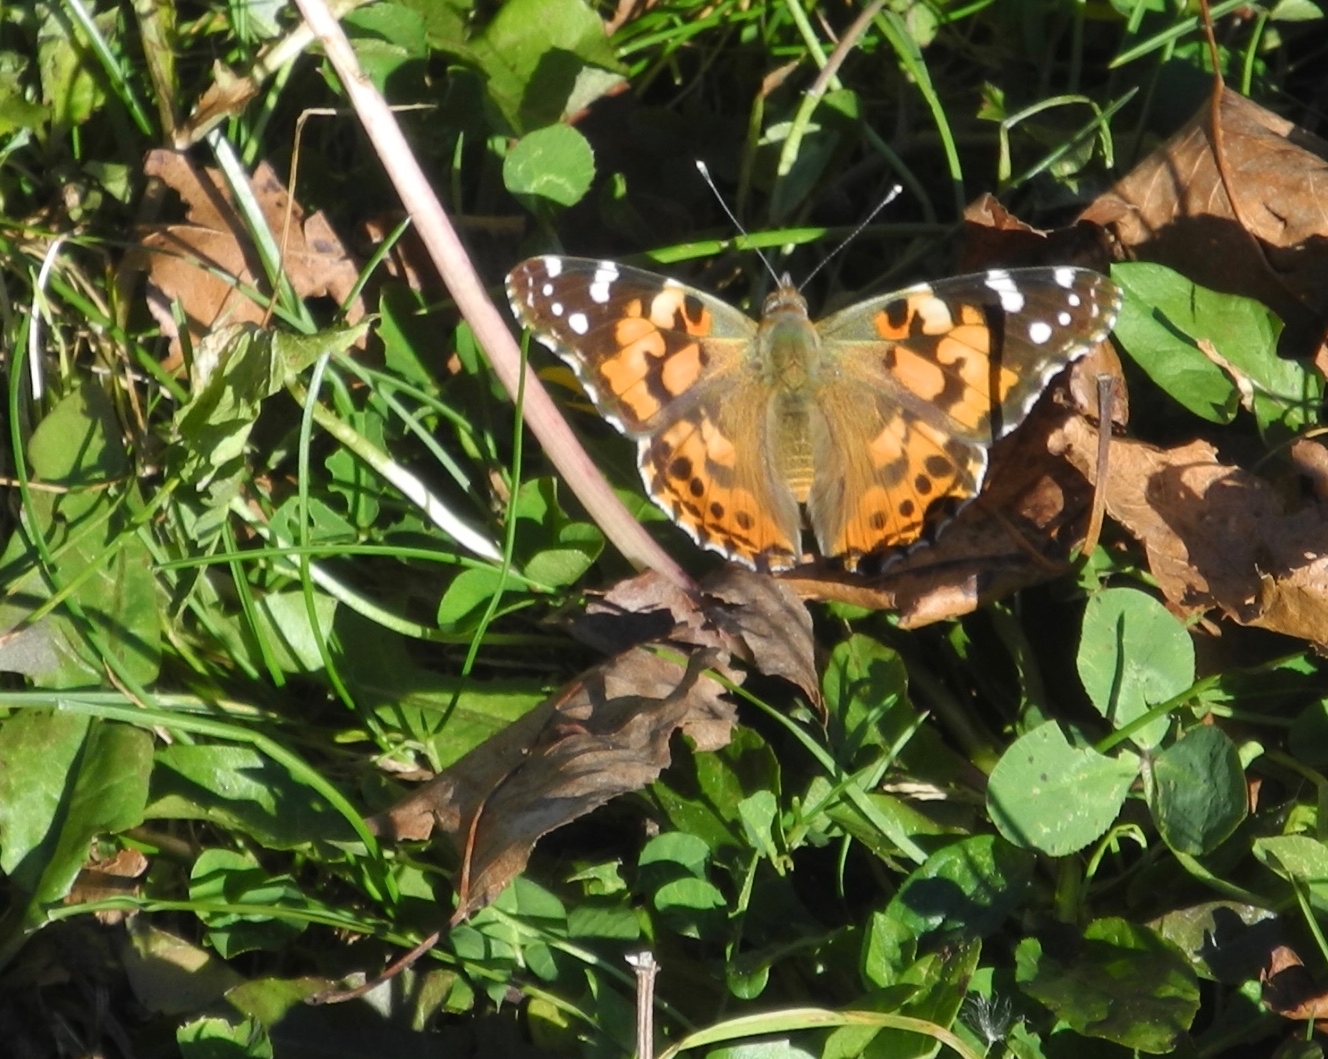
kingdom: Animalia
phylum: Arthropoda
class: Insecta
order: Lepidoptera
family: Nymphalidae
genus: Vanessa
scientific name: Vanessa cardui
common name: Painted lady
